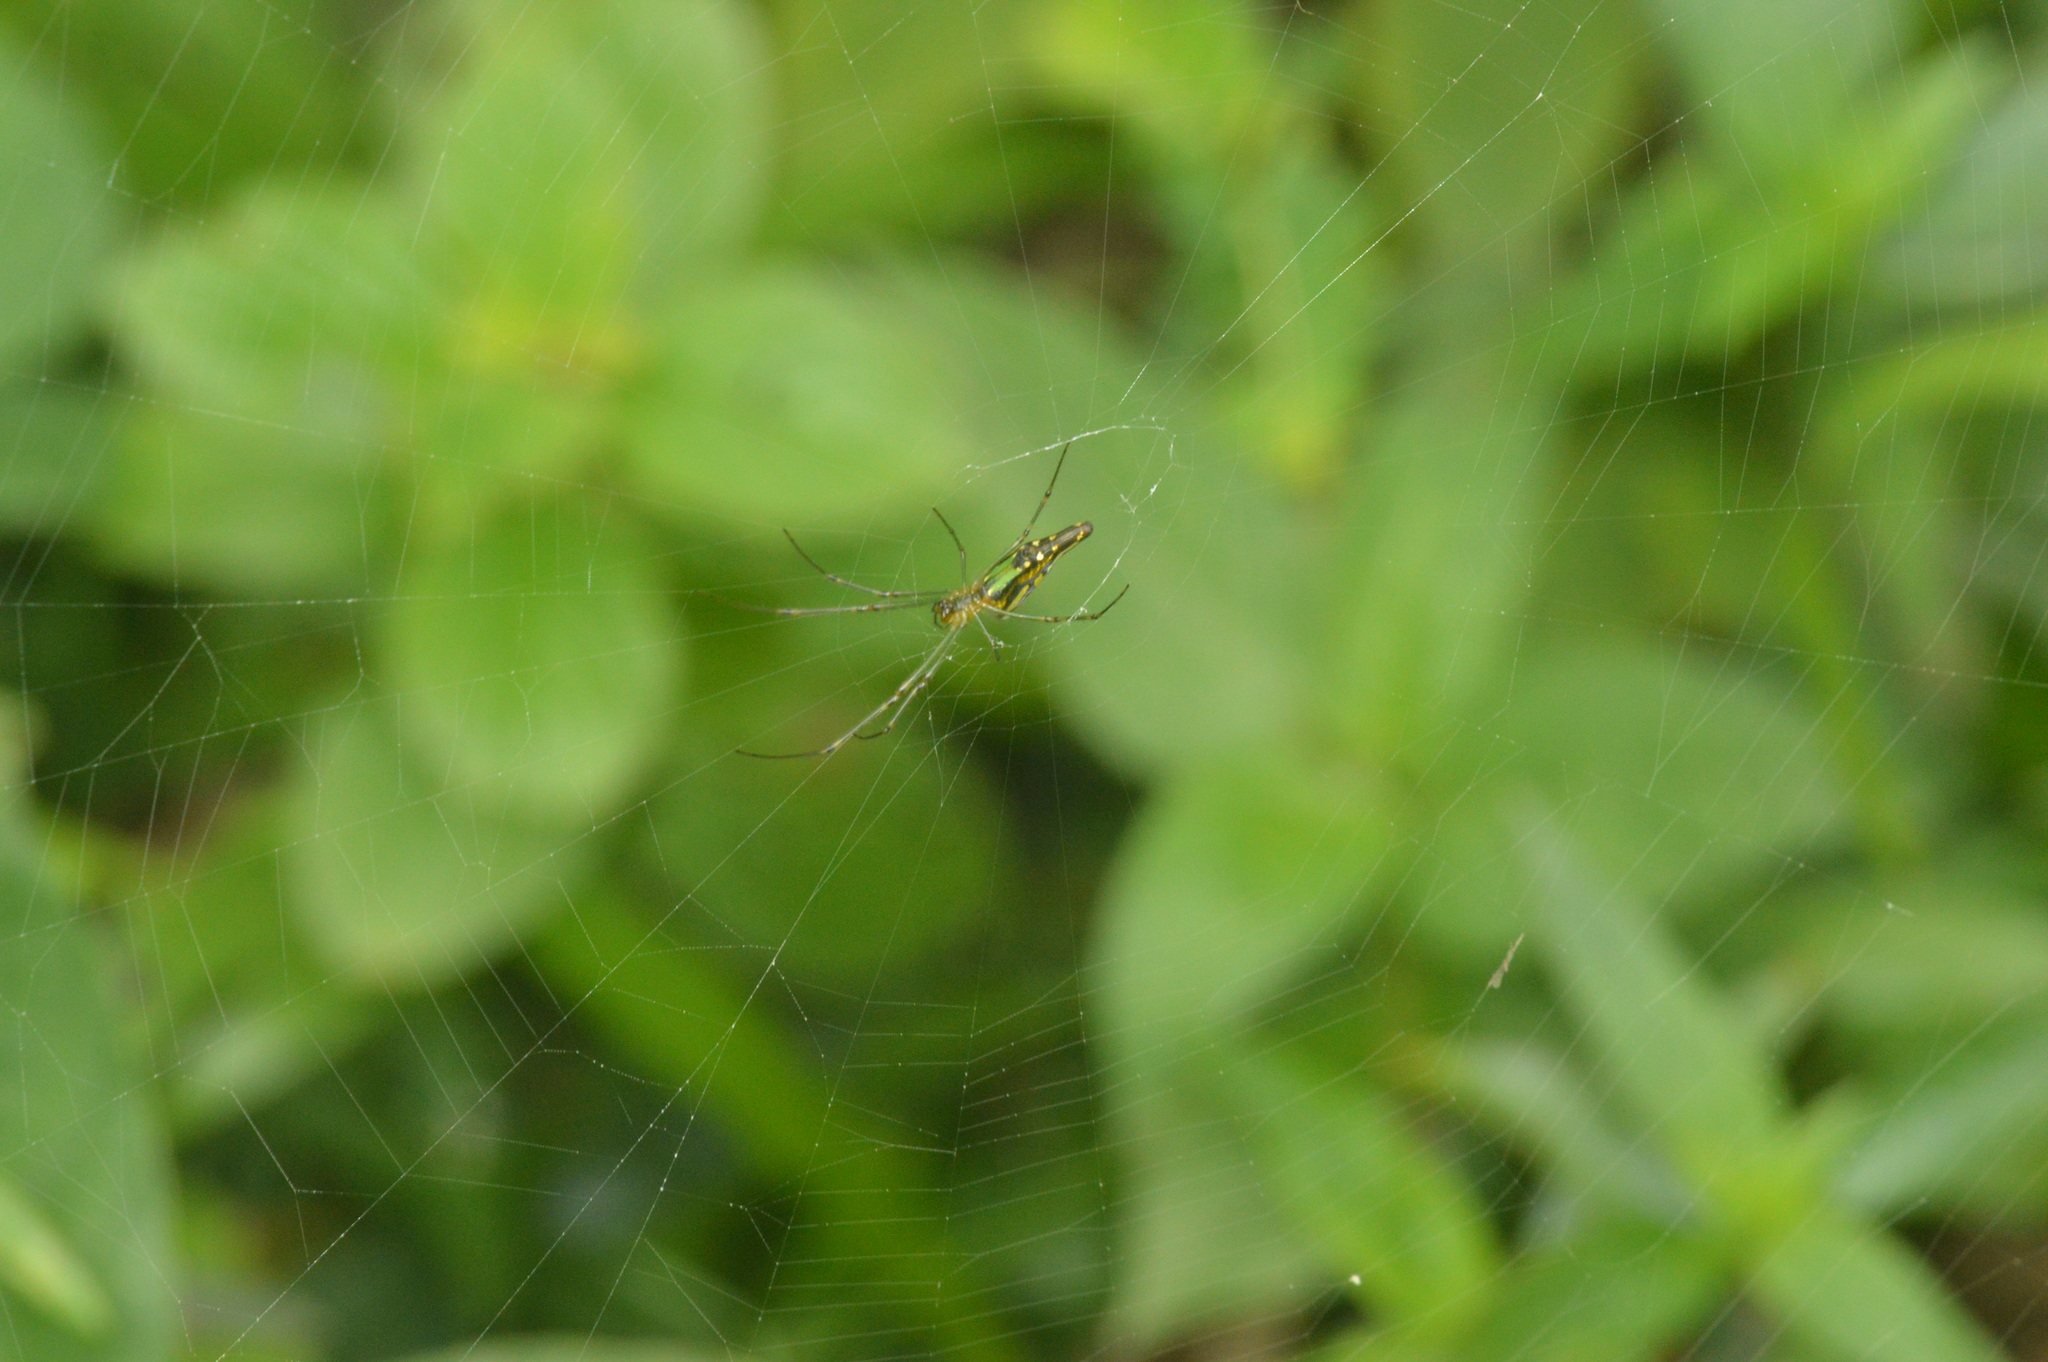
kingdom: Animalia
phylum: Arthropoda
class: Arachnida
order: Araneae
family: Tetragnathidae
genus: Leucauge
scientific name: Leucauge decorata
